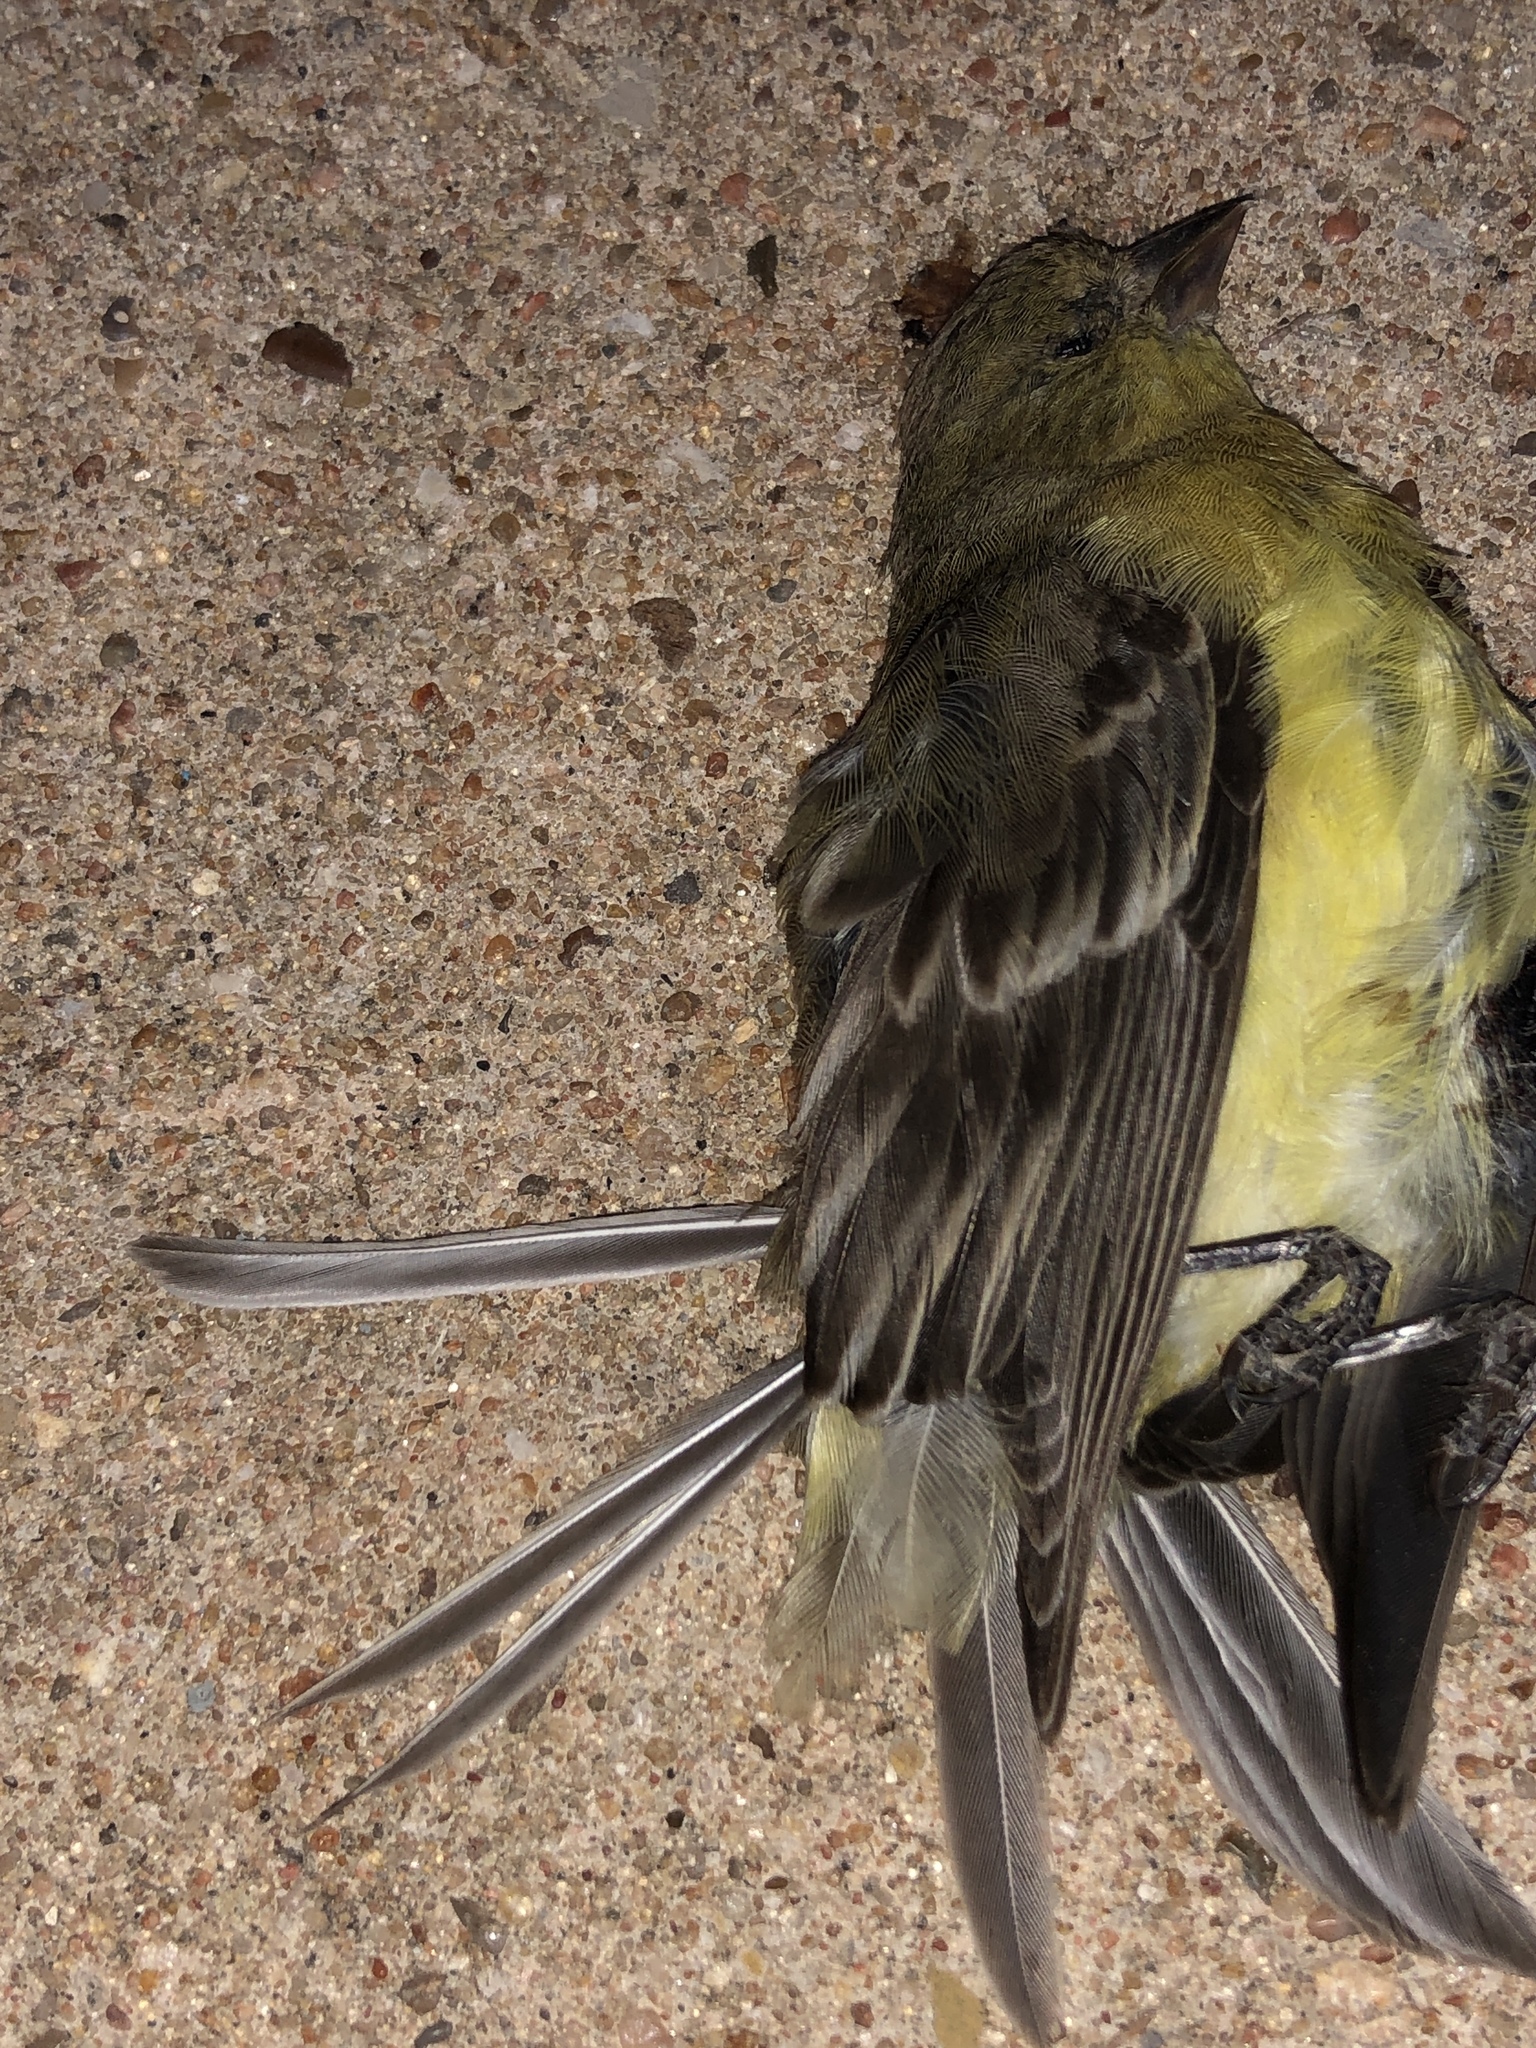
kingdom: Animalia
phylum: Chordata
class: Aves
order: Passeriformes
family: Fringillidae
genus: Spinus
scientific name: Spinus psaltria
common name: Lesser goldfinch
